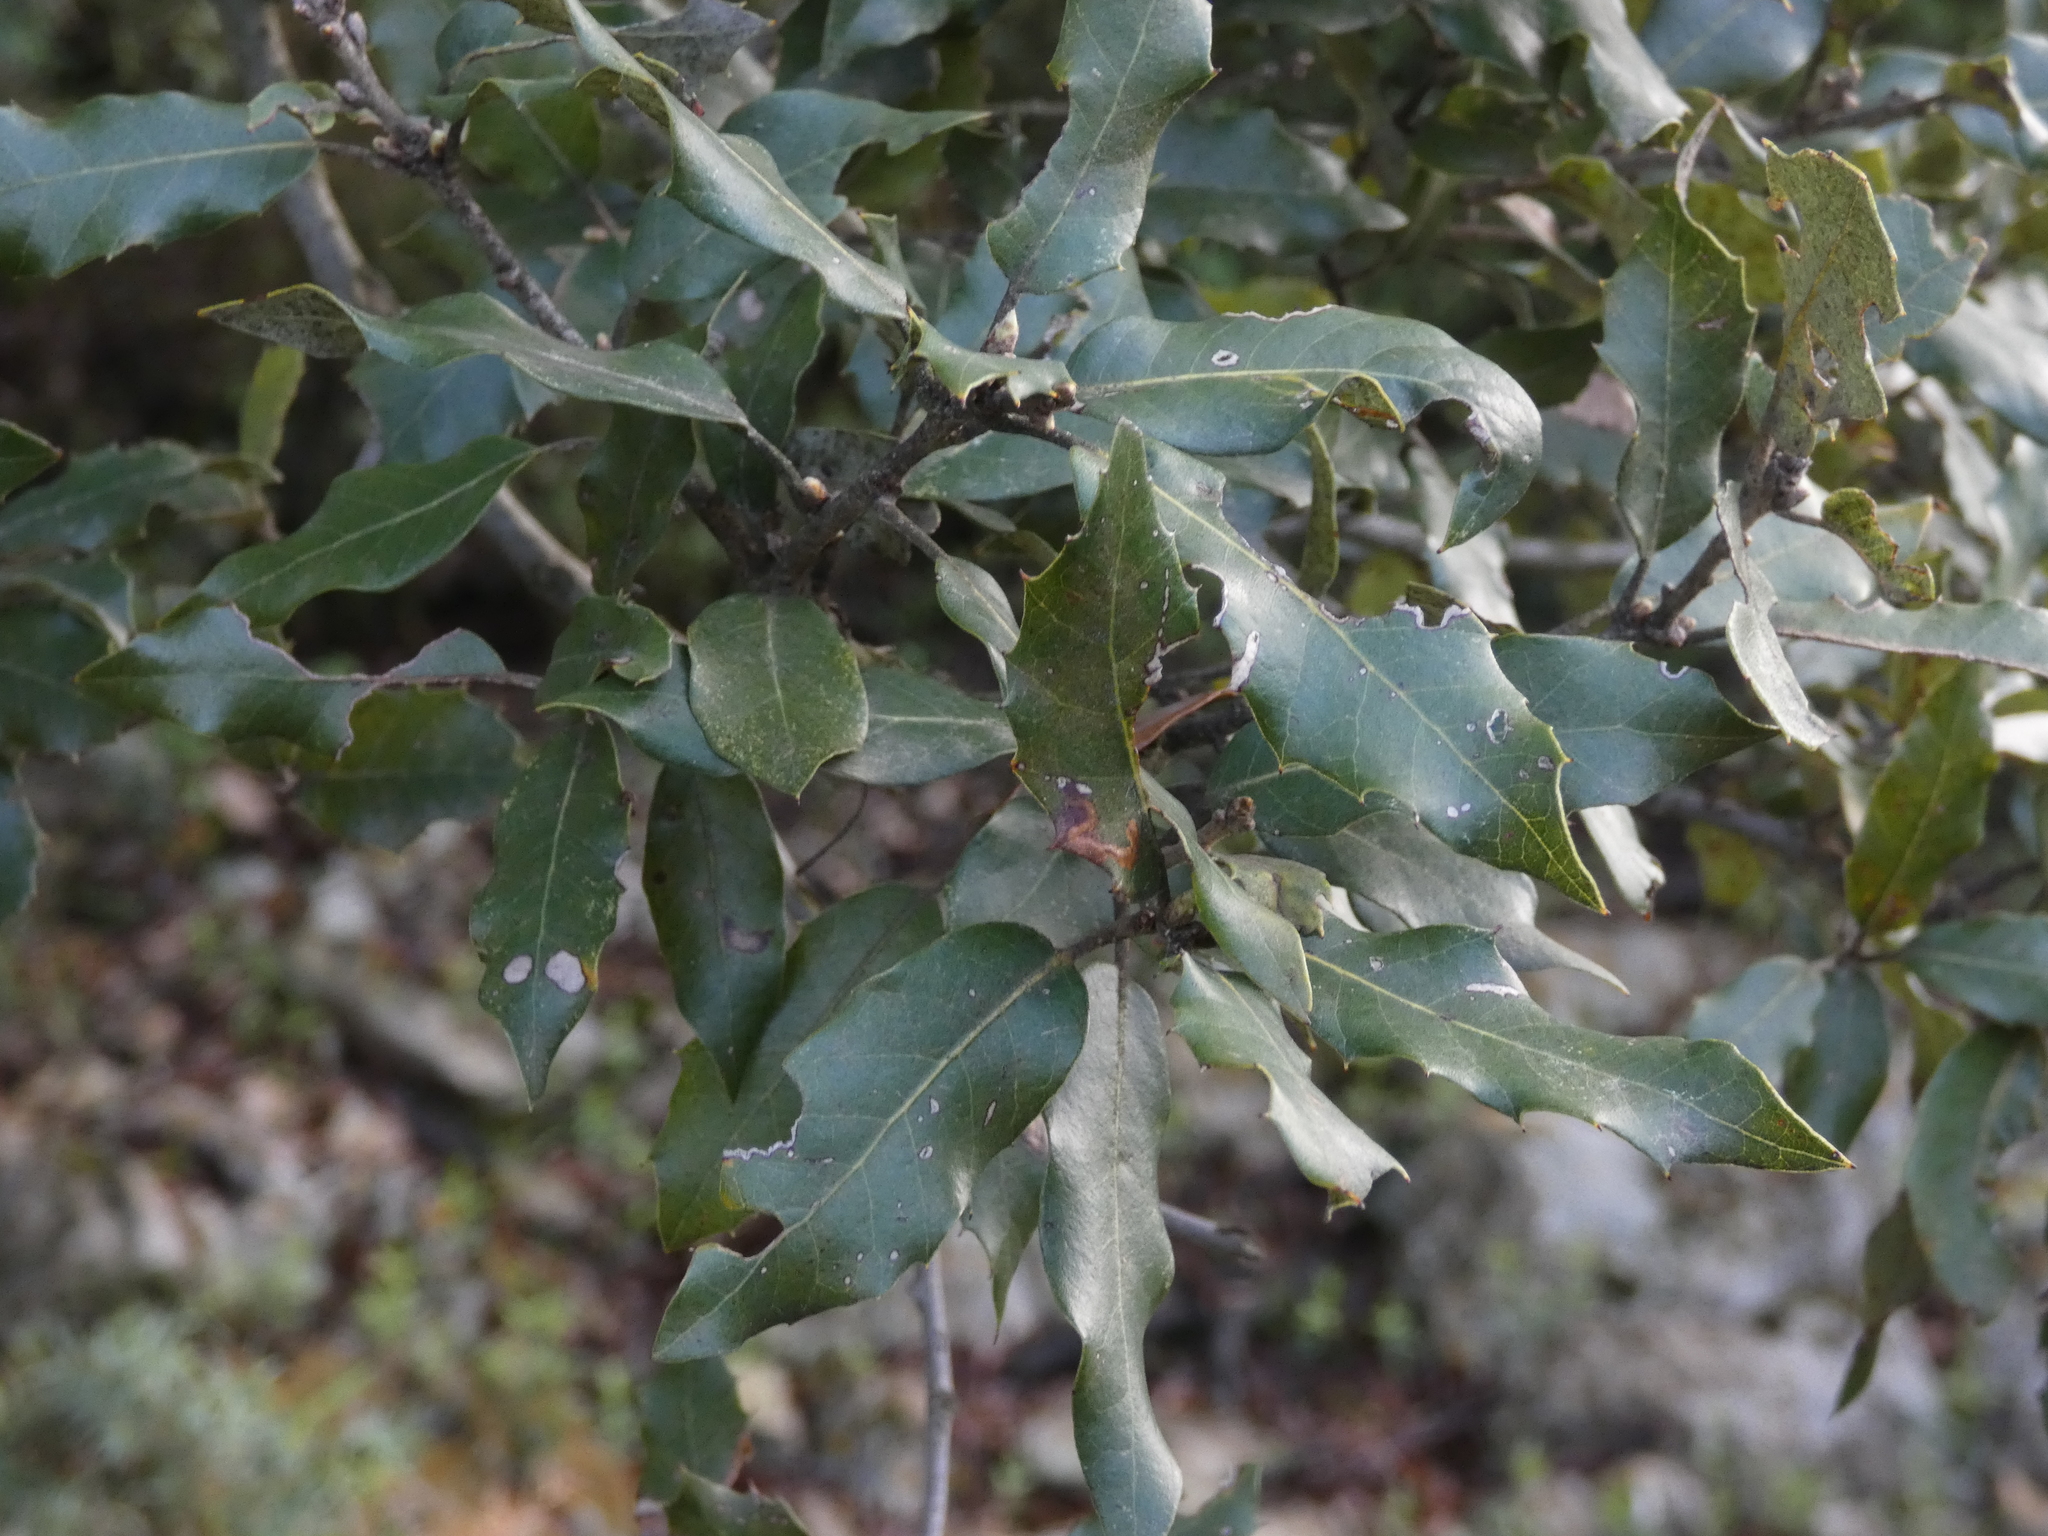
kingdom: Plantae
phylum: Tracheophyta
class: Magnoliopsida
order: Fagales
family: Fagaceae
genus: Quercus
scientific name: Quercus ilex
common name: Evergreen oak
